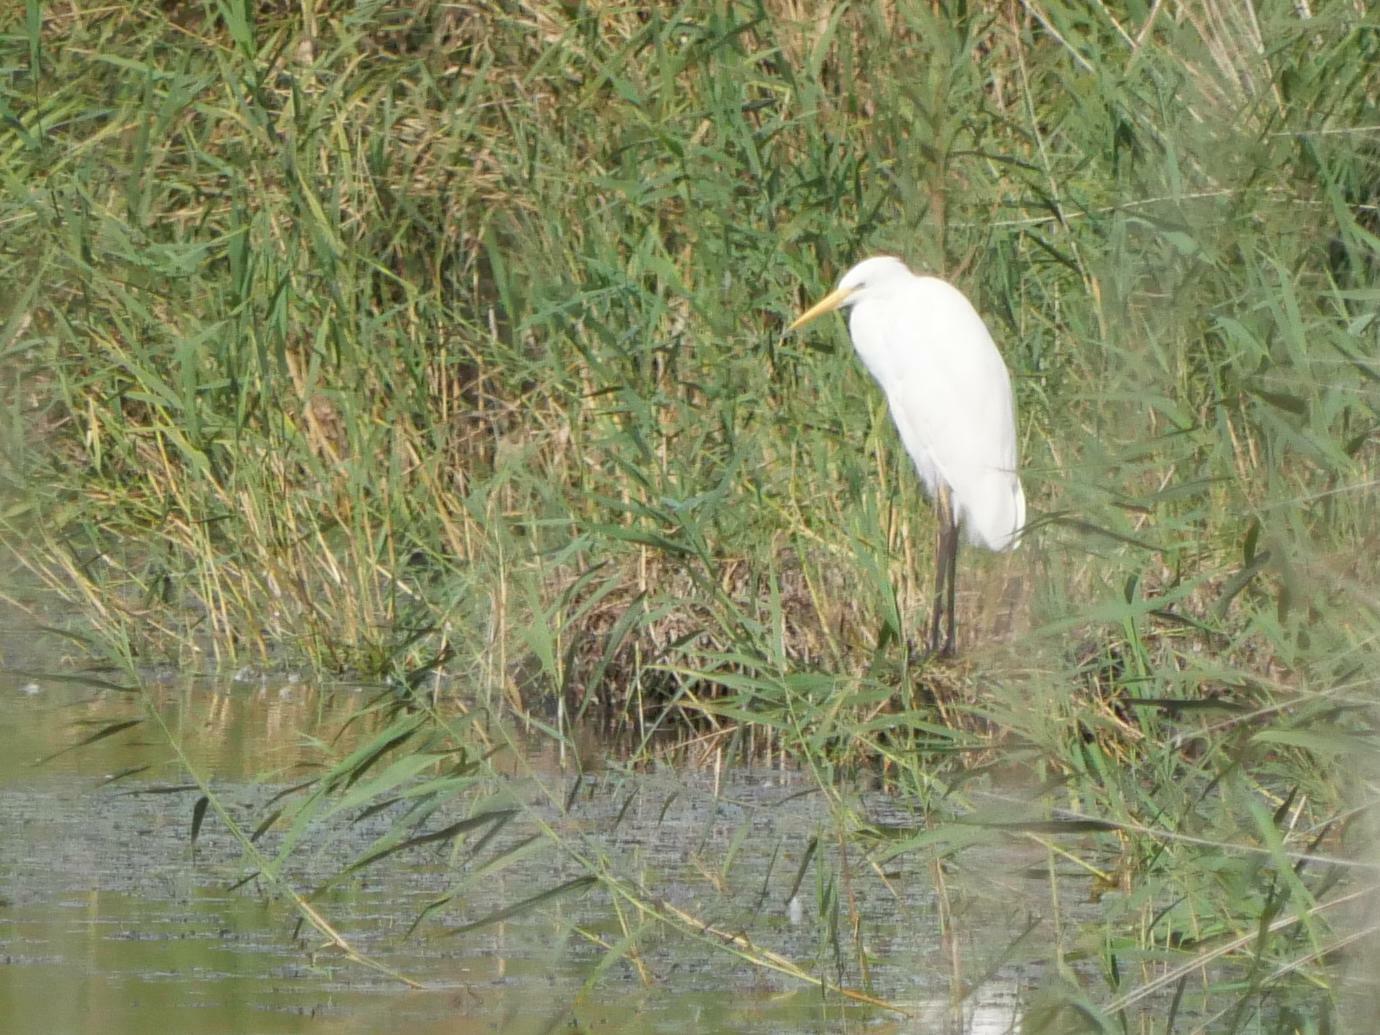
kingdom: Animalia
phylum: Chordata
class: Aves
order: Pelecaniformes
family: Ardeidae
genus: Ardea
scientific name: Ardea alba
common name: Great egret
